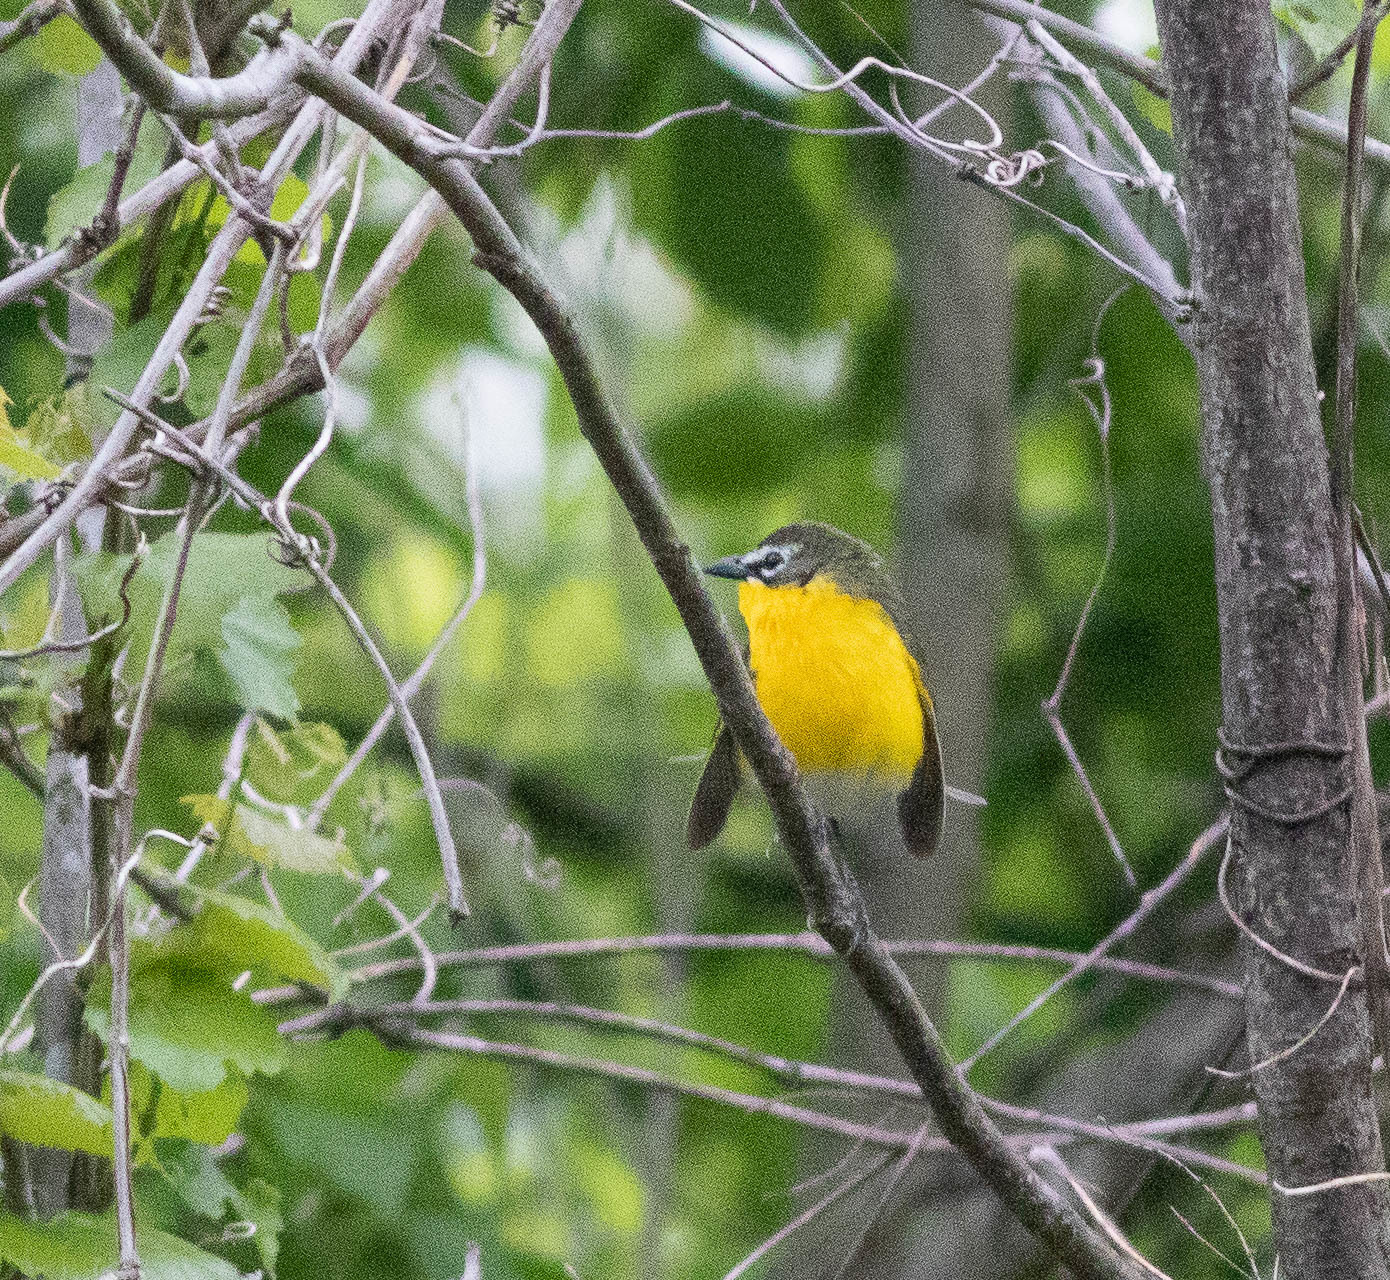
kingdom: Animalia
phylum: Chordata
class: Aves
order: Passeriformes
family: Parulidae
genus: Icteria
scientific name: Icteria virens
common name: Yellow-breasted chat
